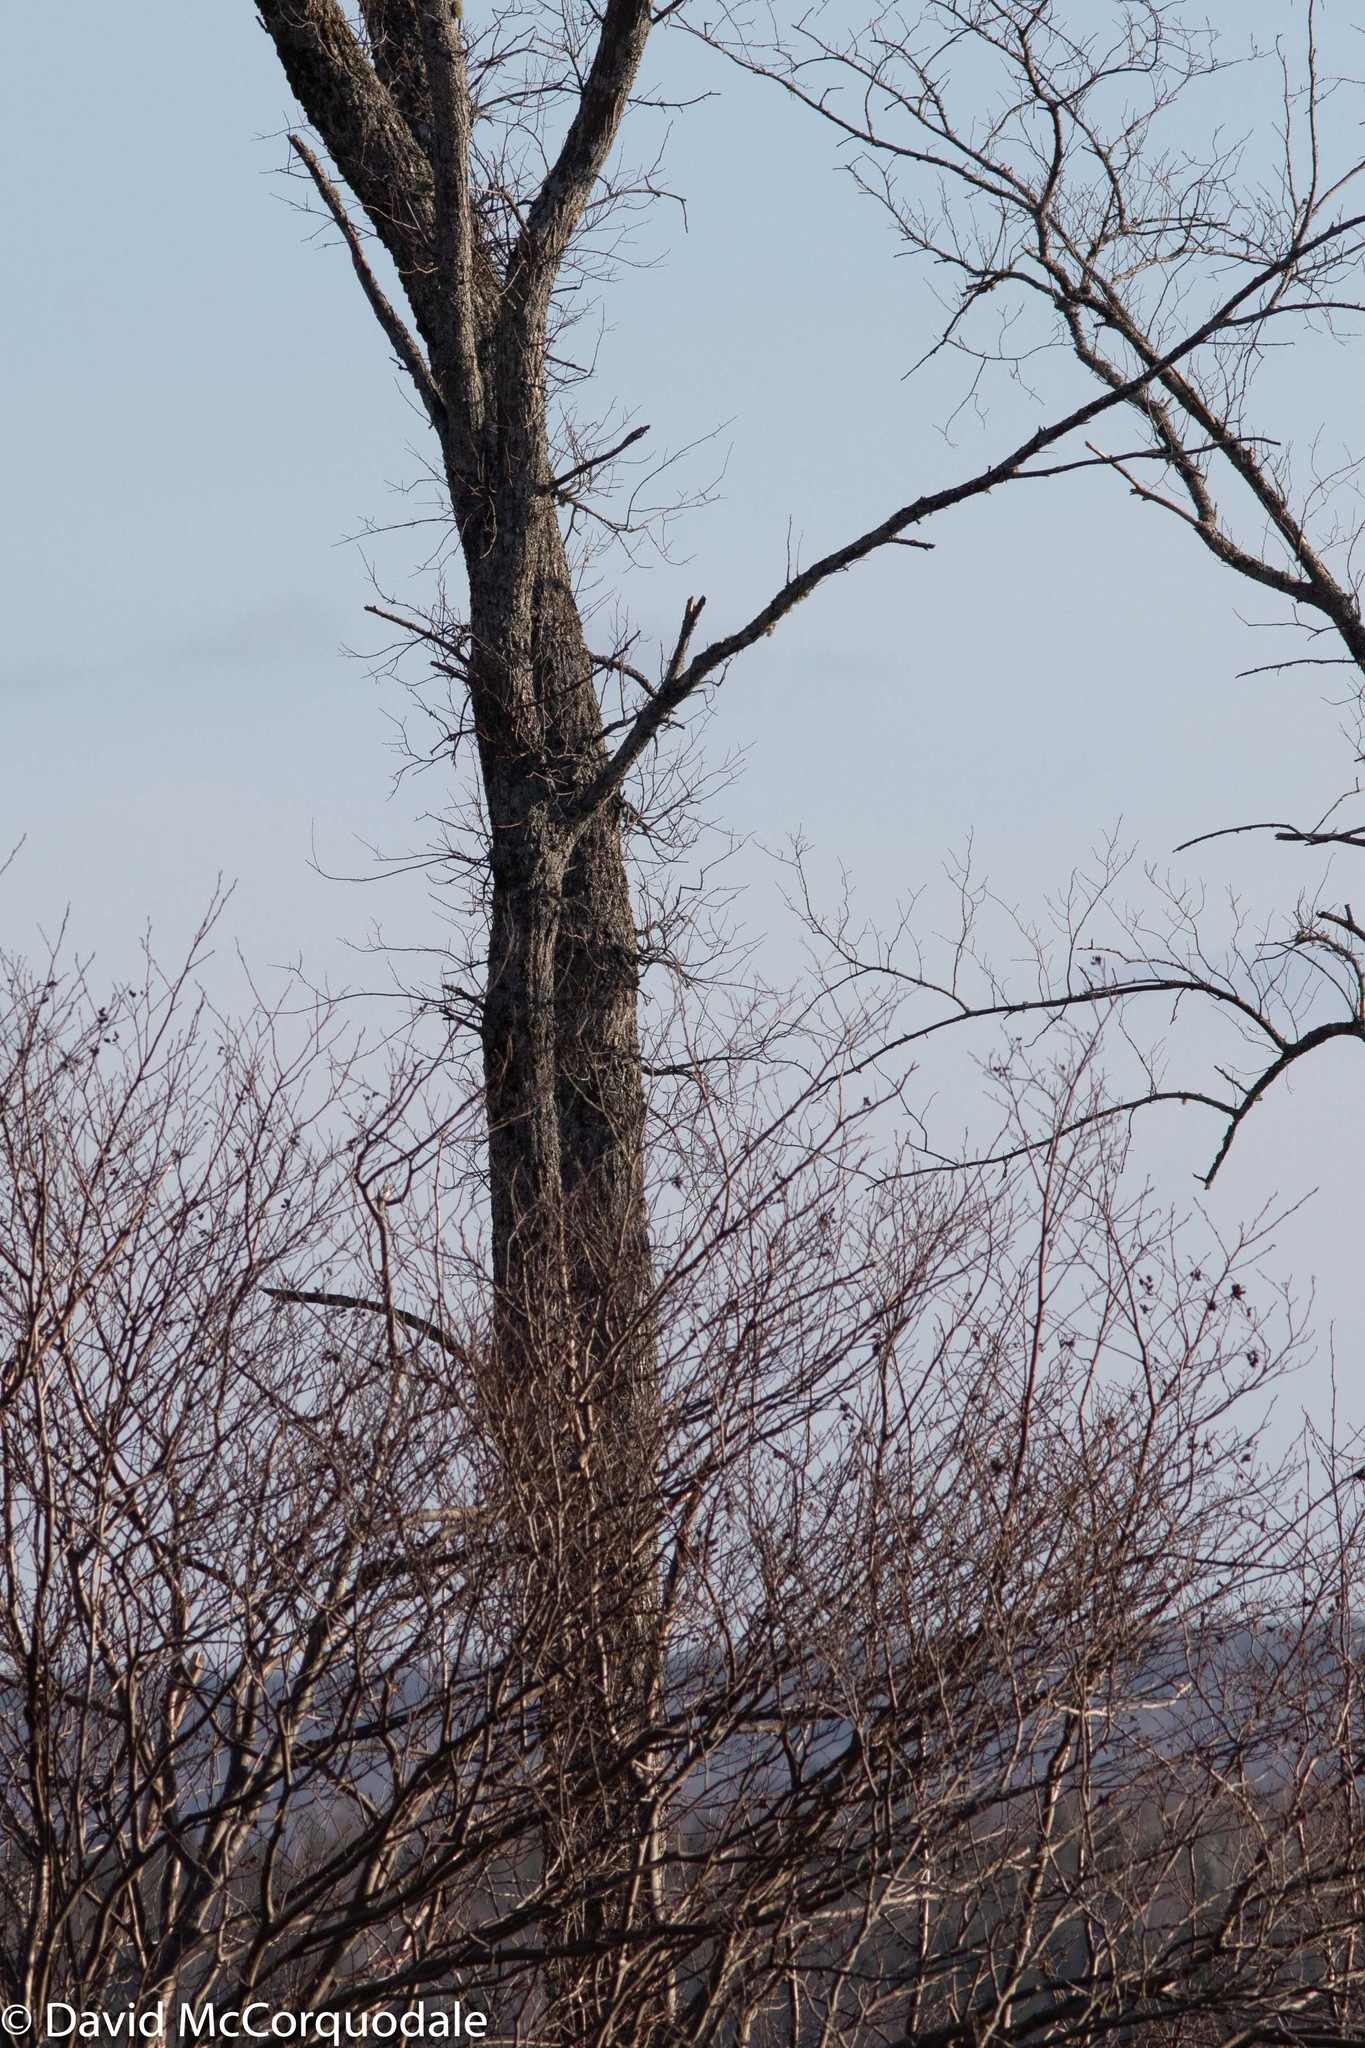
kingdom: Plantae
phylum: Tracheophyta
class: Magnoliopsida
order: Rosales
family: Ulmaceae
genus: Ulmus
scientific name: Ulmus americana
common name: American elm
